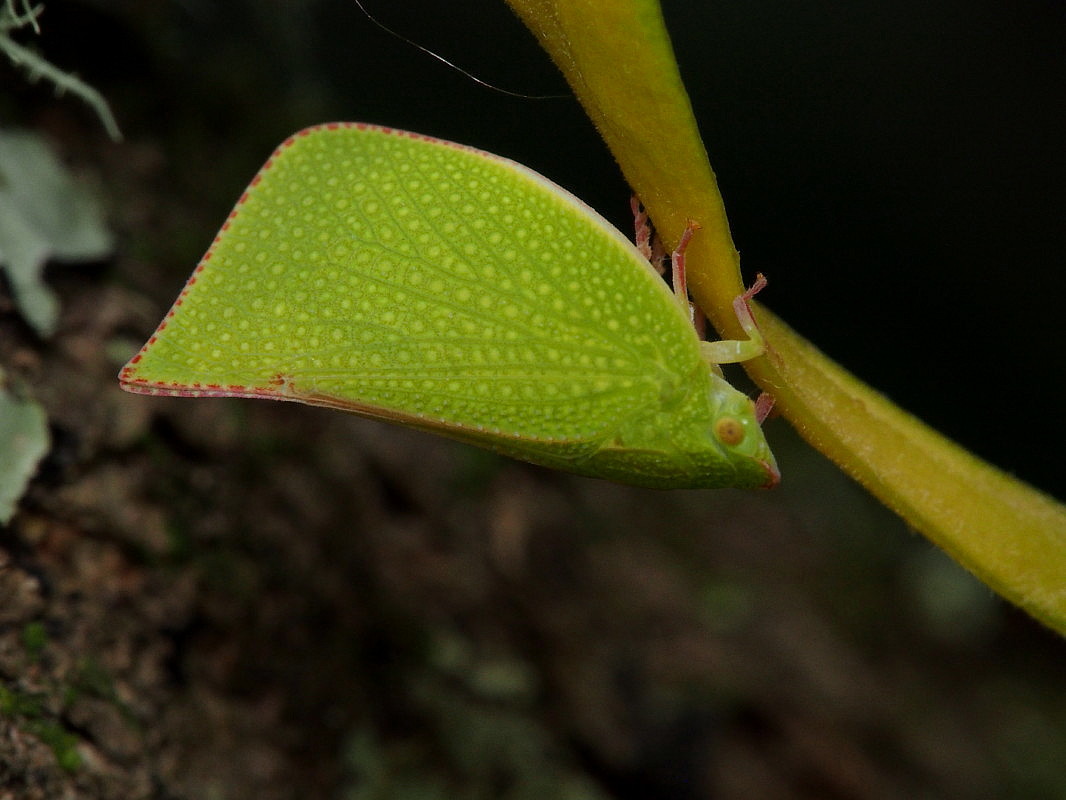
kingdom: Animalia
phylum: Arthropoda
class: Insecta
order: Hemiptera
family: Flatidae
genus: Siphanta
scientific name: Siphanta acuta
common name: Torpedo bug
